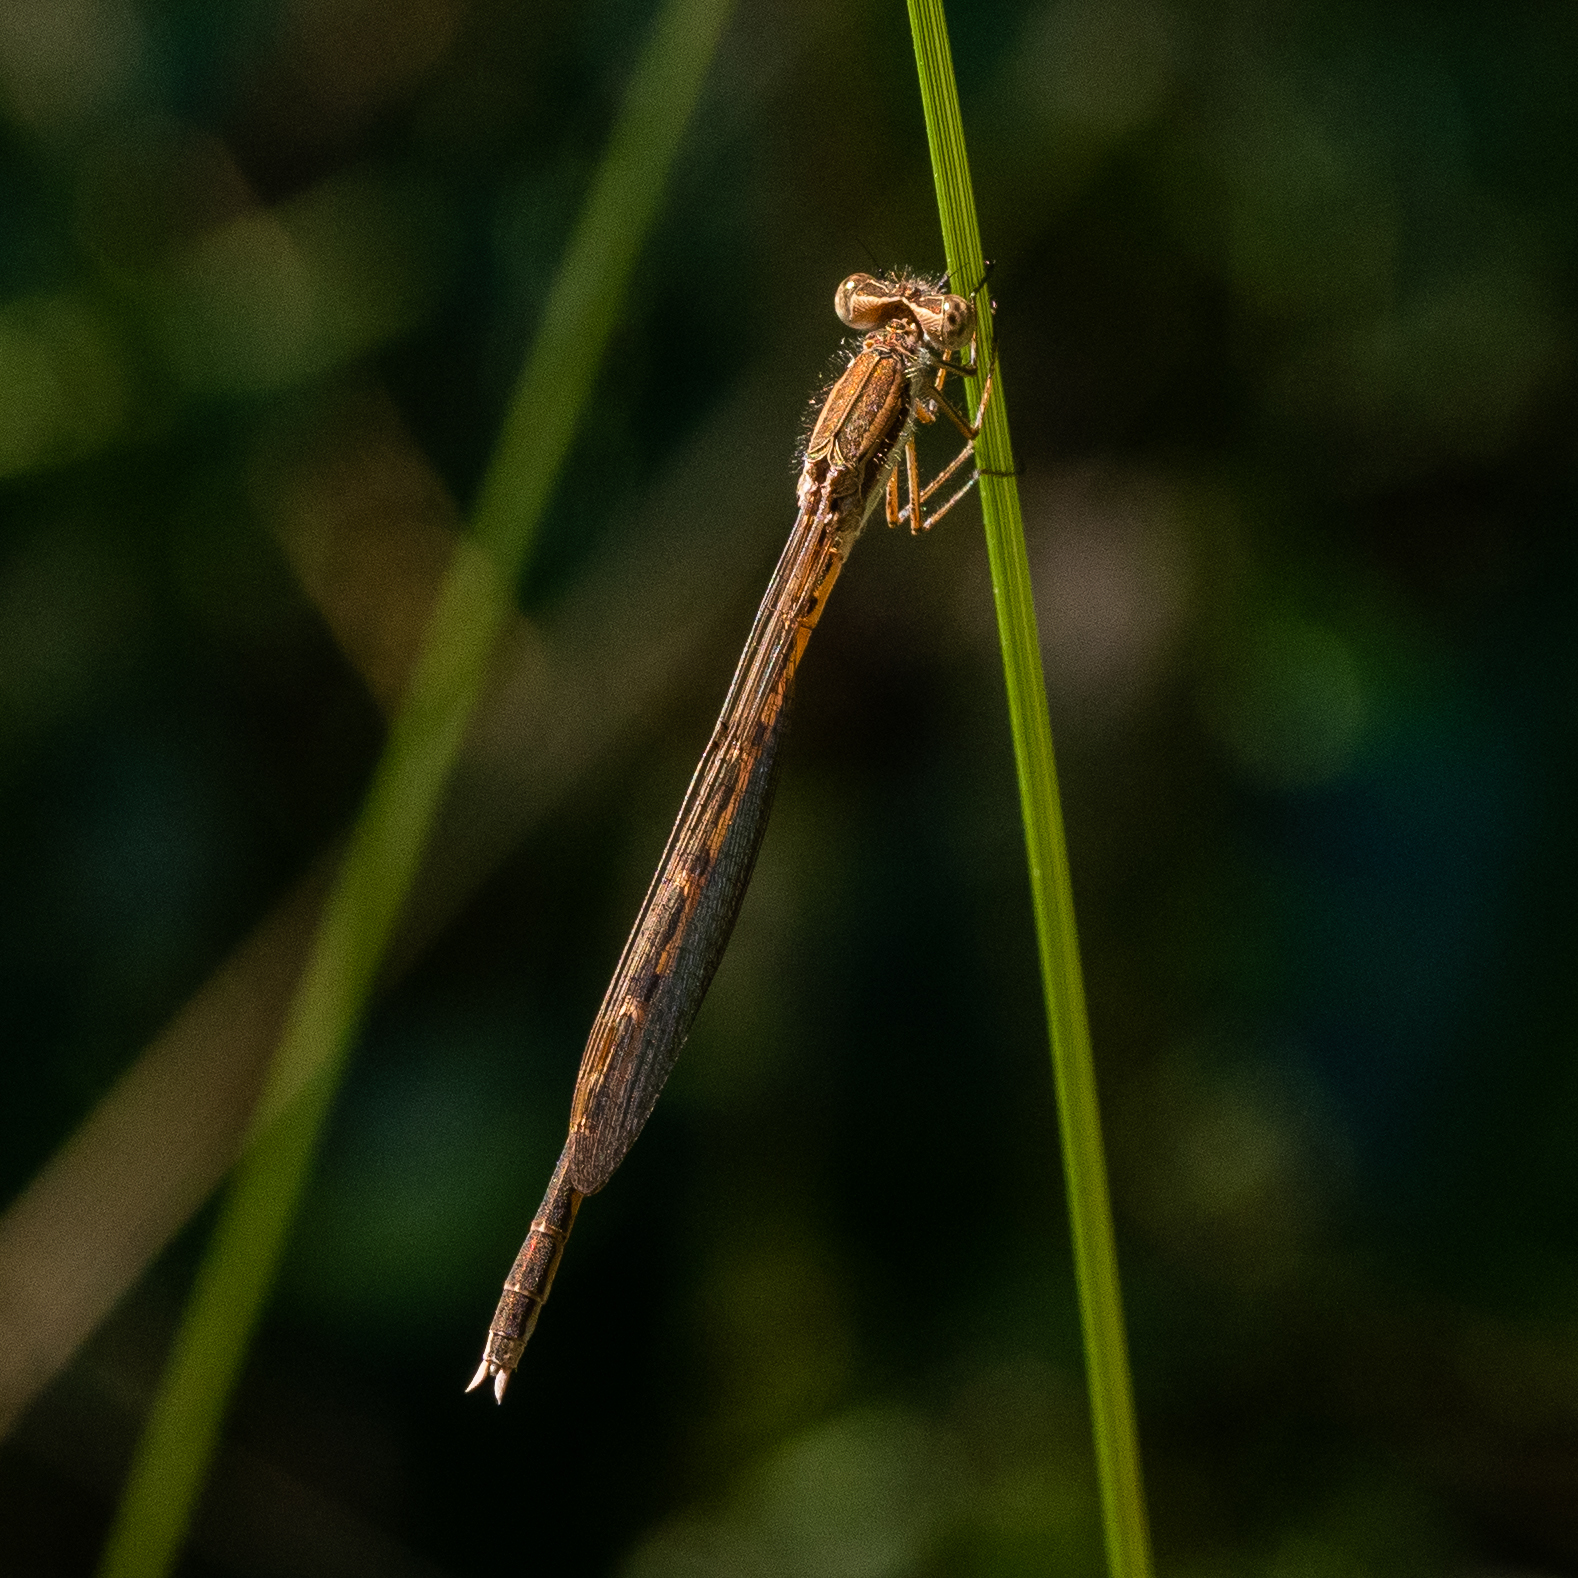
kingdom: Animalia
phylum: Arthropoda
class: Insecta
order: Odonata
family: Lestidae
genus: Sympecma
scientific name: Sympecma fusca
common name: Common winter damsel
